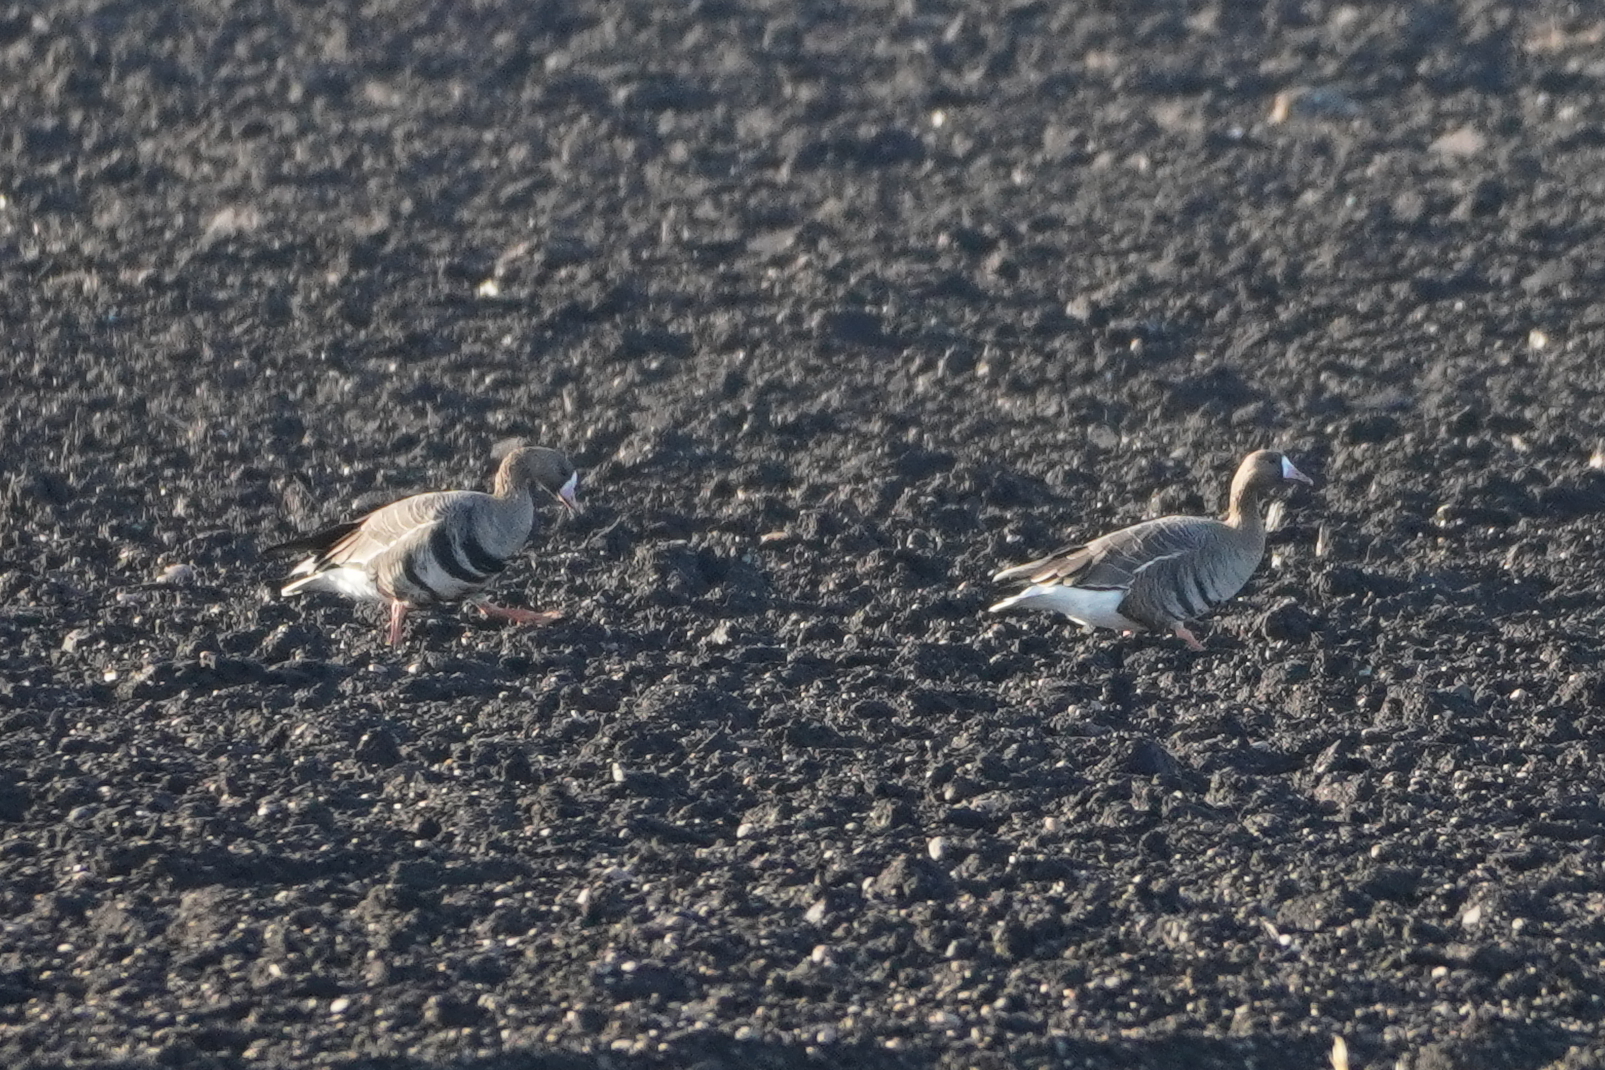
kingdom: Animalia
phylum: Chordata
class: Aves
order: Anseriformes
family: Anatidae
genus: Anser
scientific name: Anser albifrons
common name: Greater white-fronted goose
